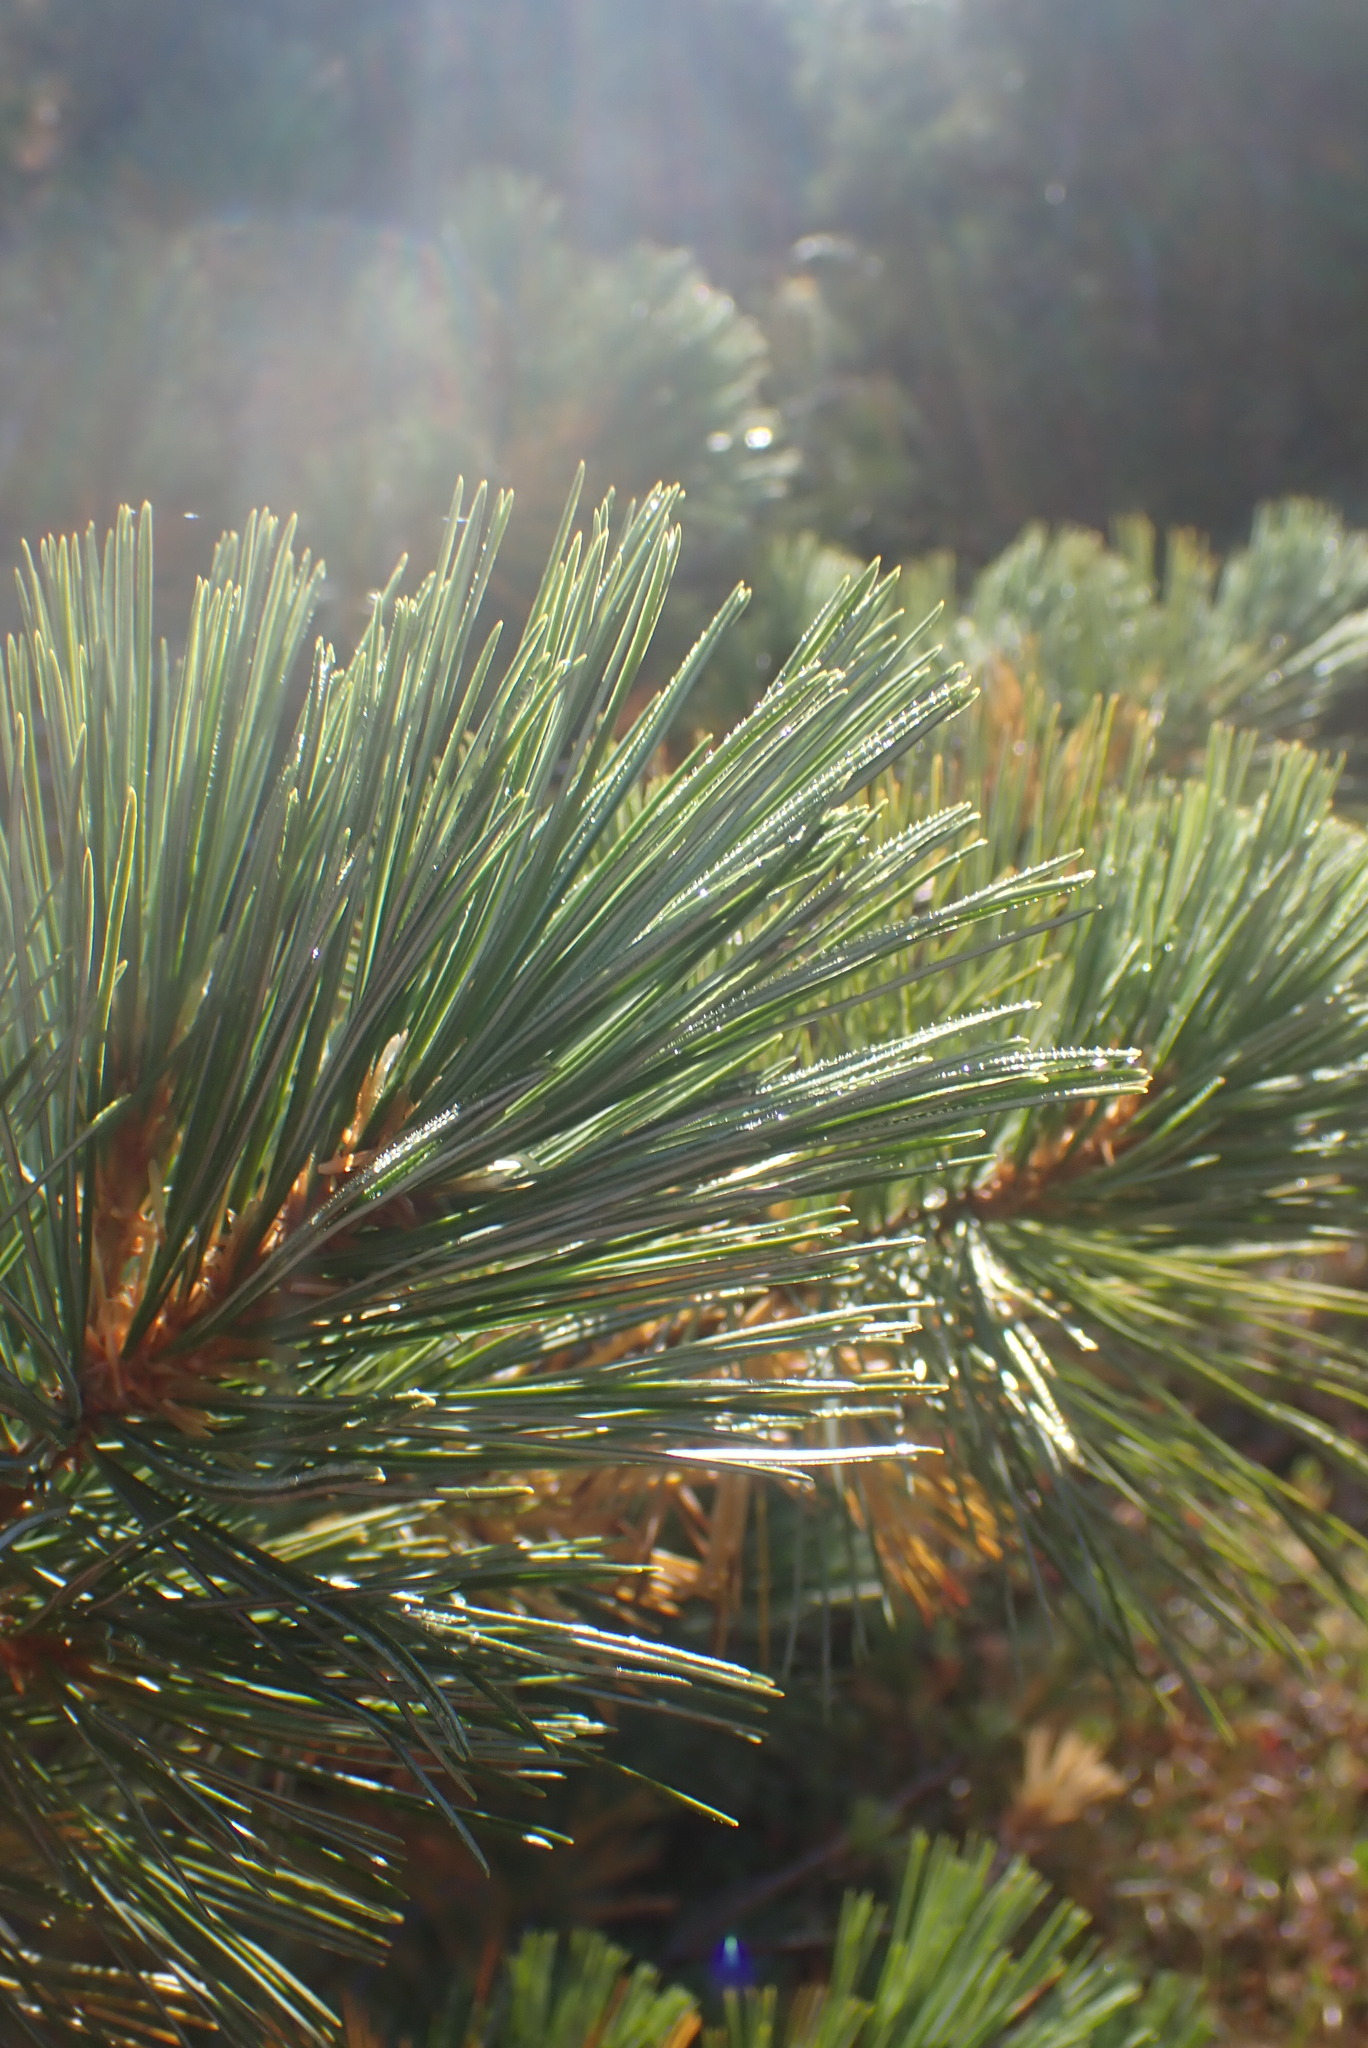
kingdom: Plantae
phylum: Tracheophyta
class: Pinopsida
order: Pinales
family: Pinaceae
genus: Pinus
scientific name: Pinus monticola
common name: Western white pine
